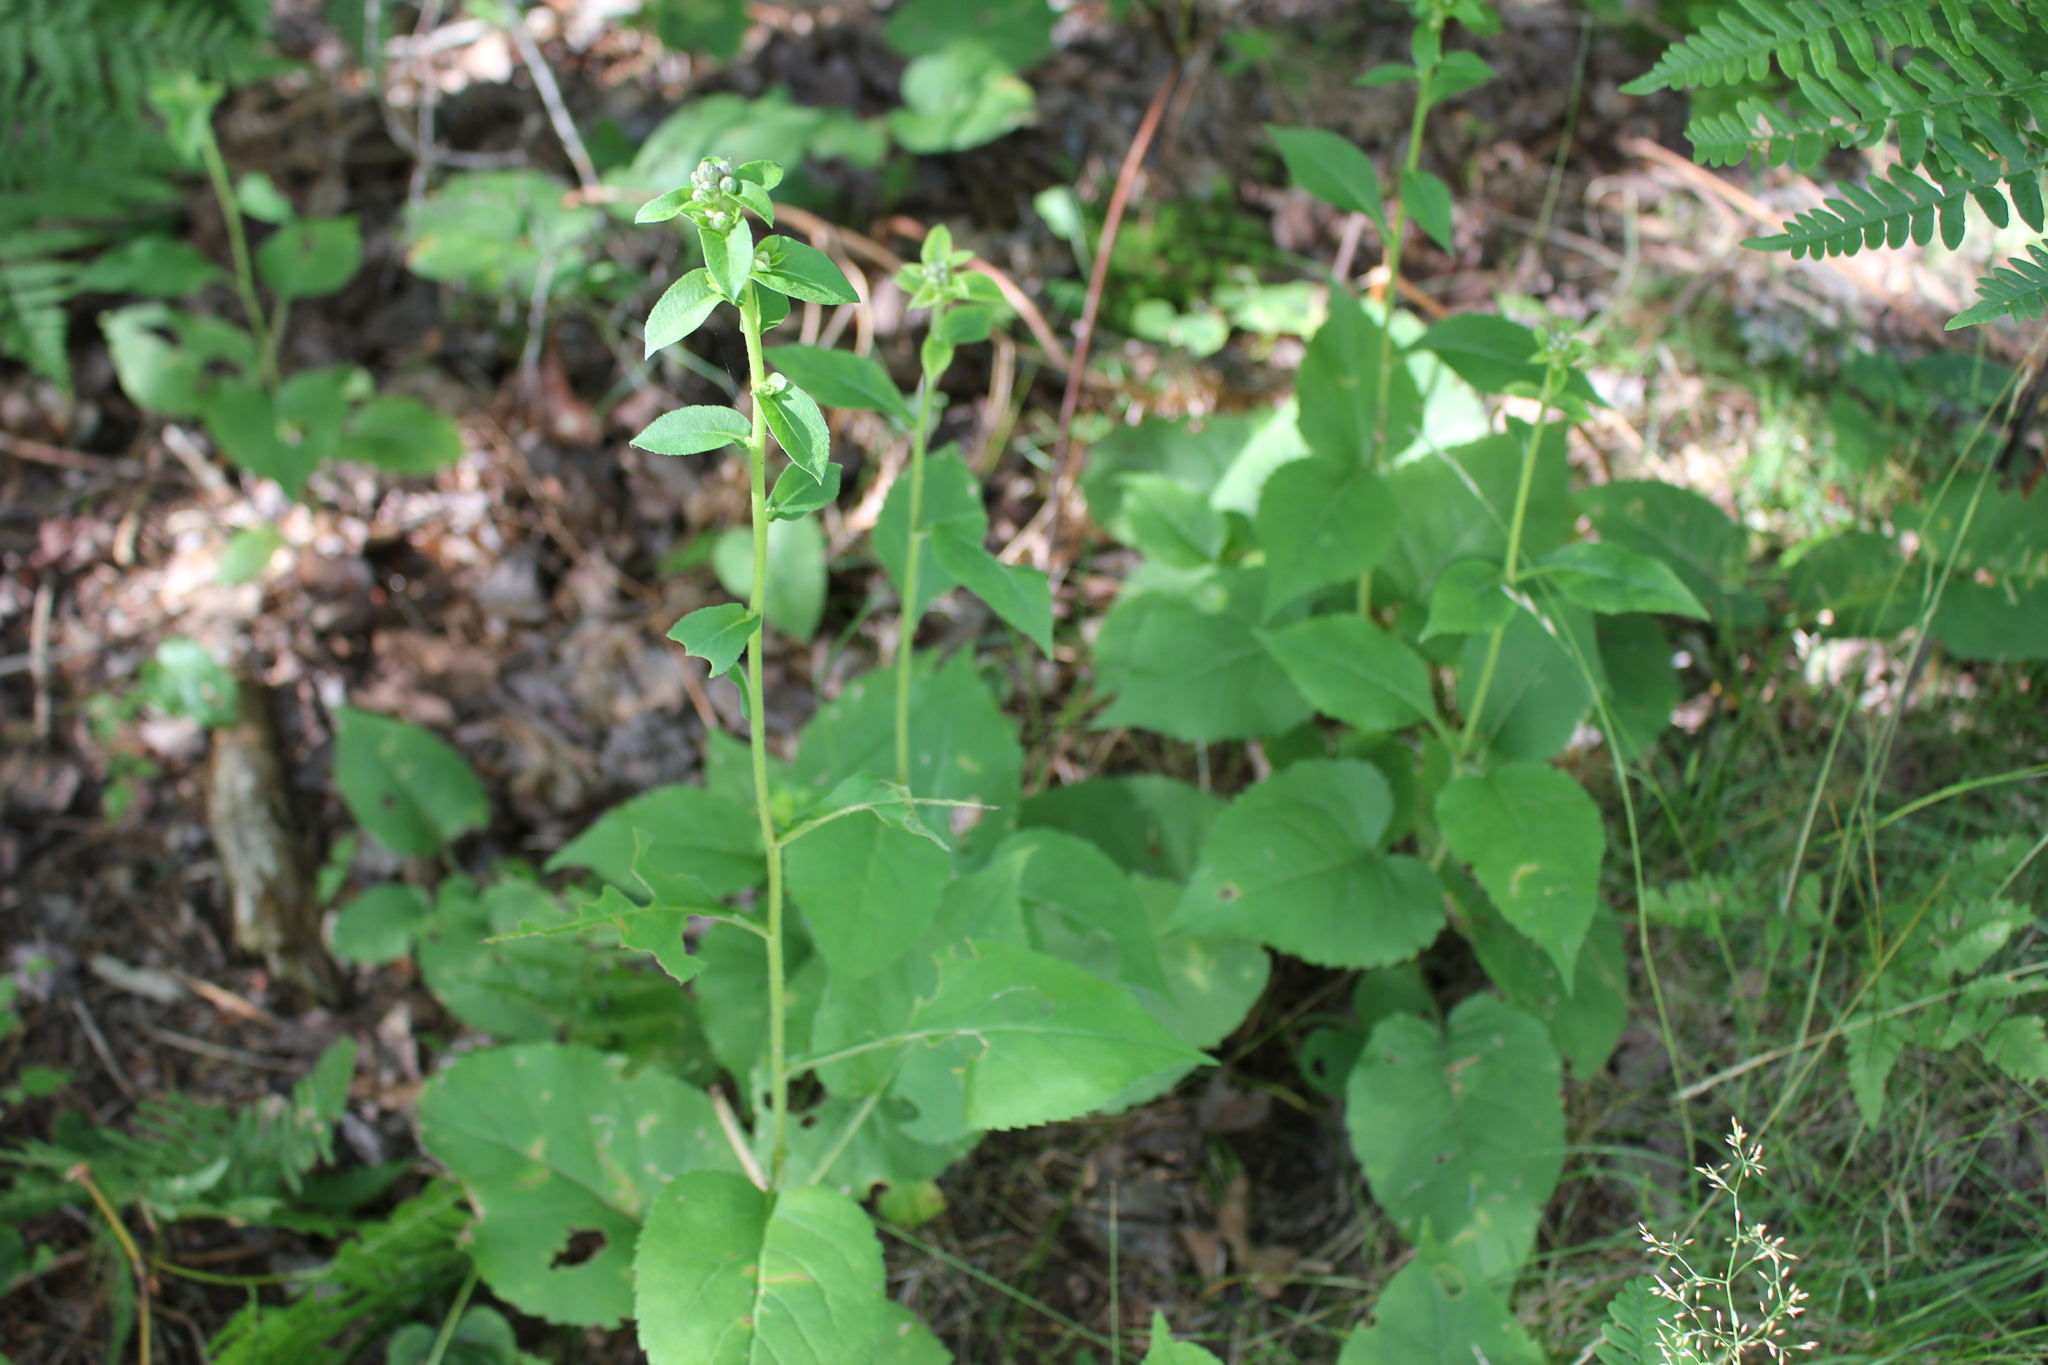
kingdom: Plantae
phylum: Tracheophyta
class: Magnoliopsida
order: Asterales
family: Asteraceae
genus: Eurybia
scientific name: Eurybia macrophylla
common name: Big-leaved aster
